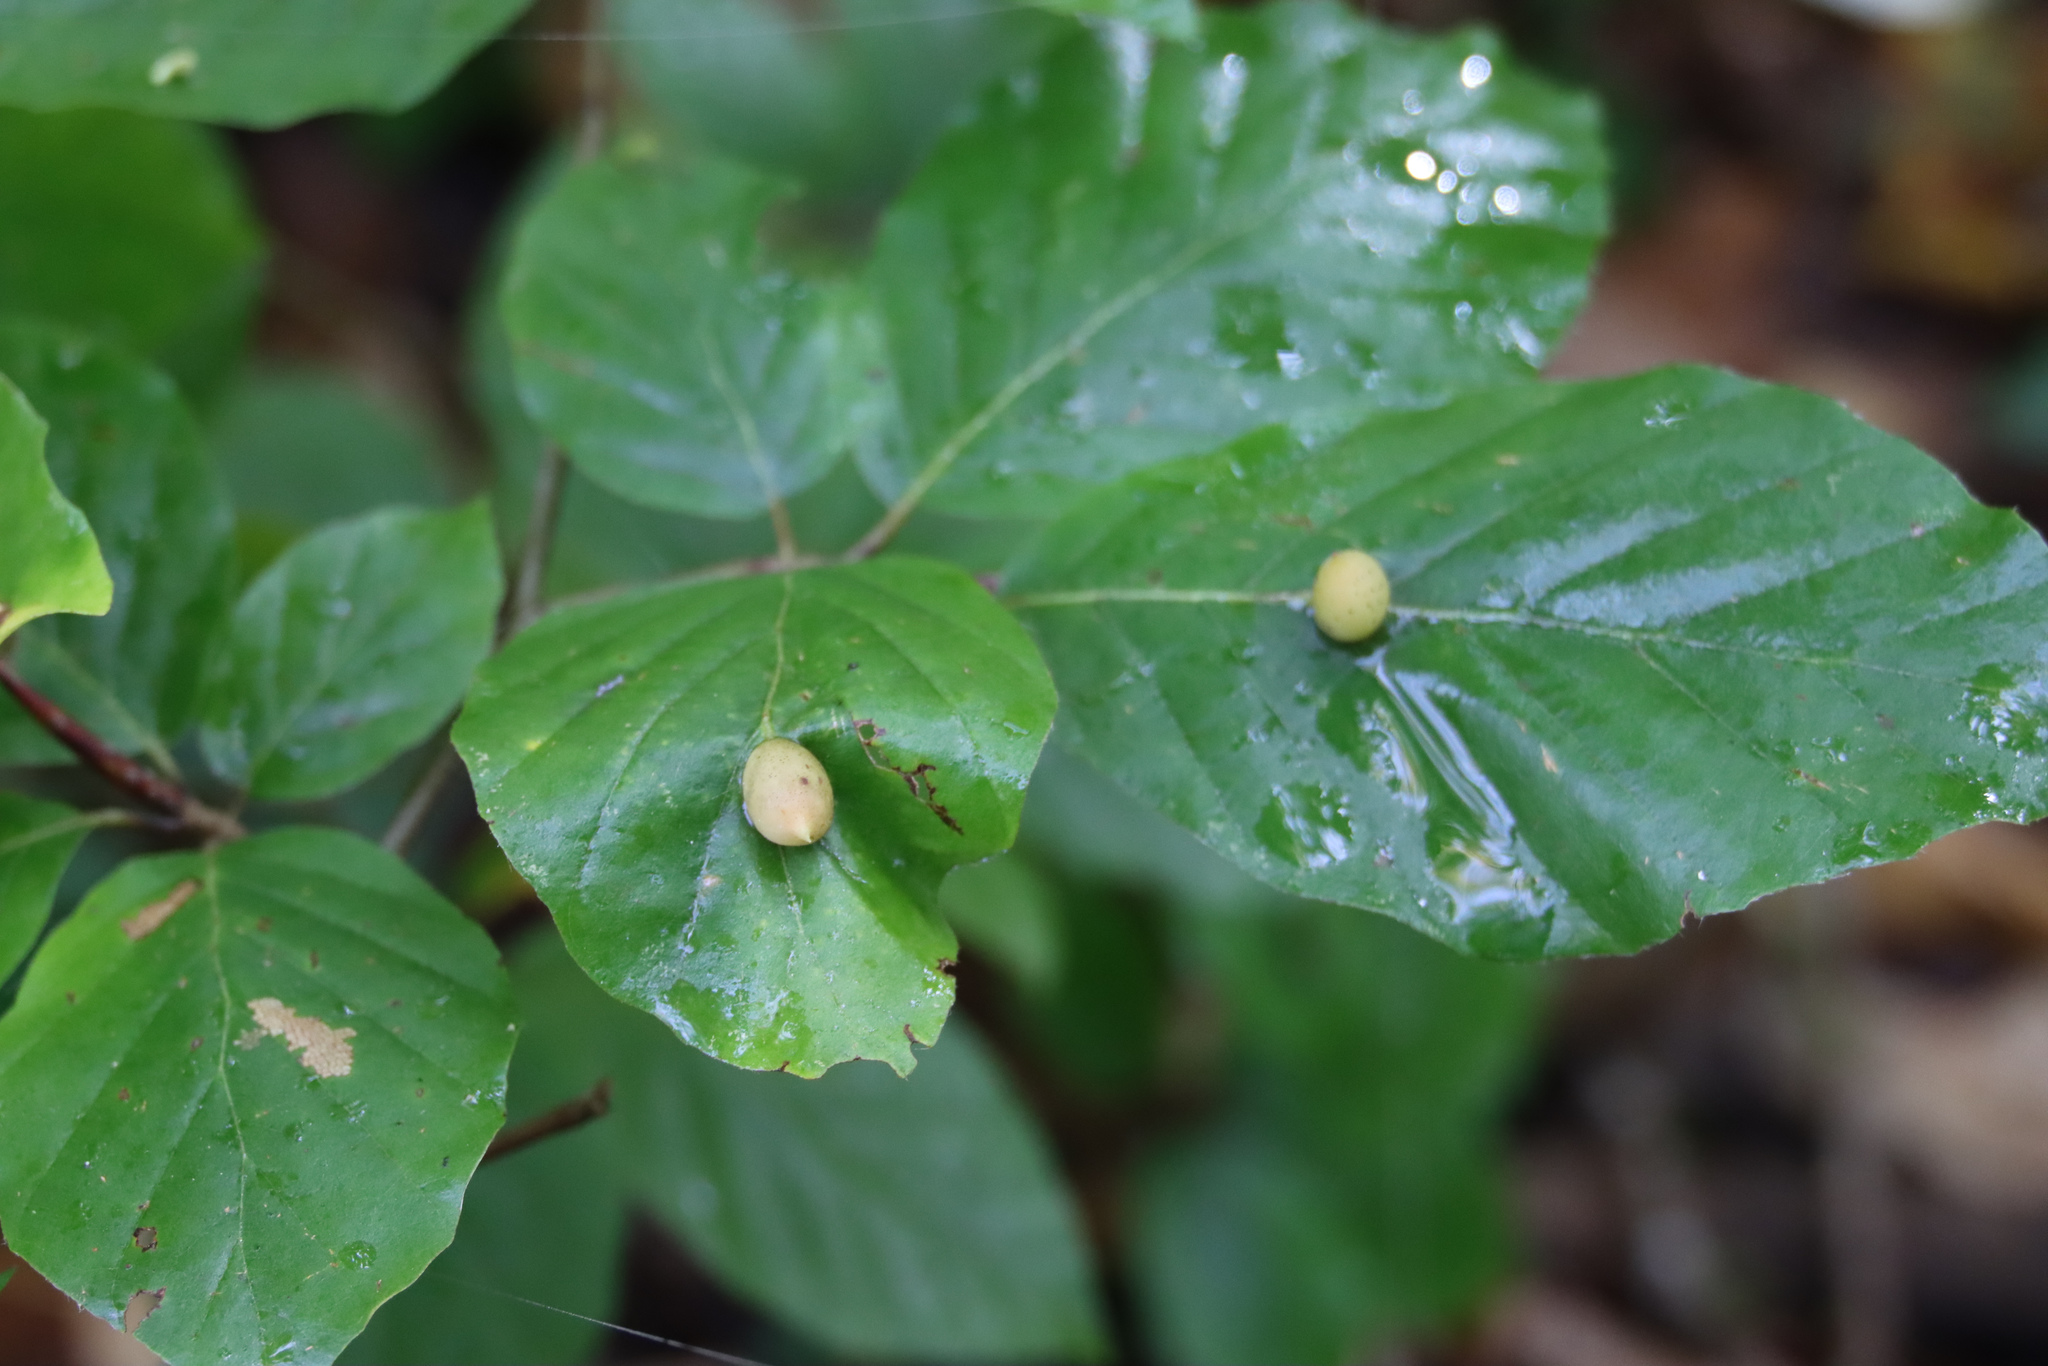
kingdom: Animalia
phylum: Arthropoda
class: Insecta
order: Diptera
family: Cecidomyiidae
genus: Mikiola
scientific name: Mikiola fagi
